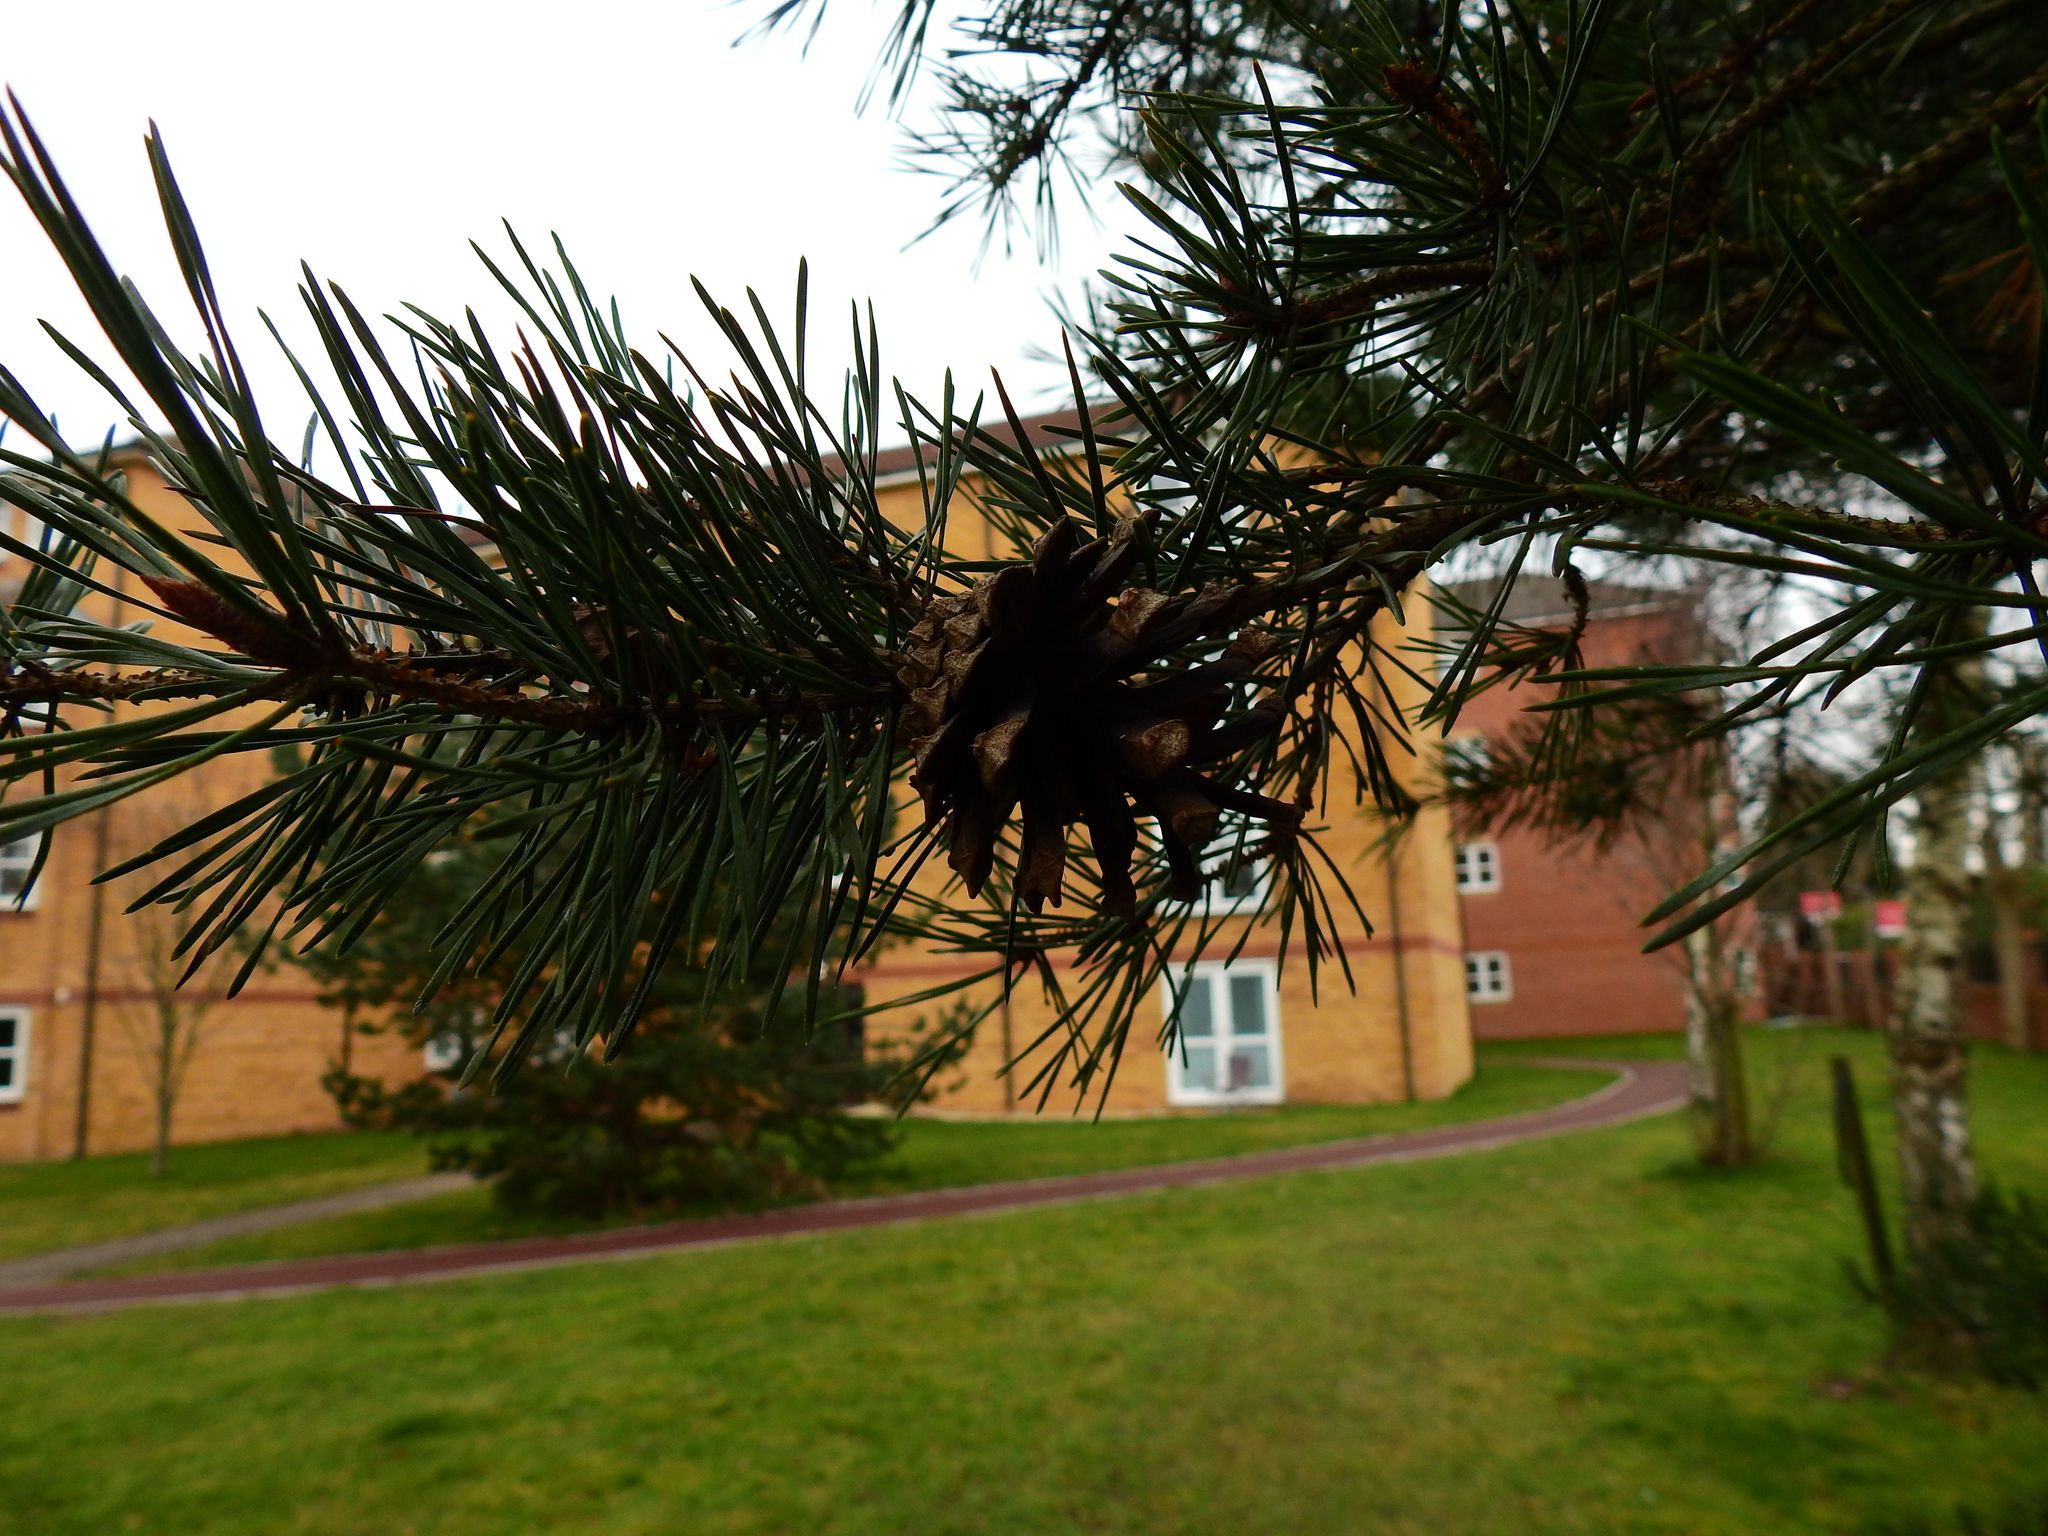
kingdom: Plantae
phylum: Tracheophyta
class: Pinopsida
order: Pinales
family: Pinaceae
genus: Pinus
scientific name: Pinus sylvestris
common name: Scots pine
